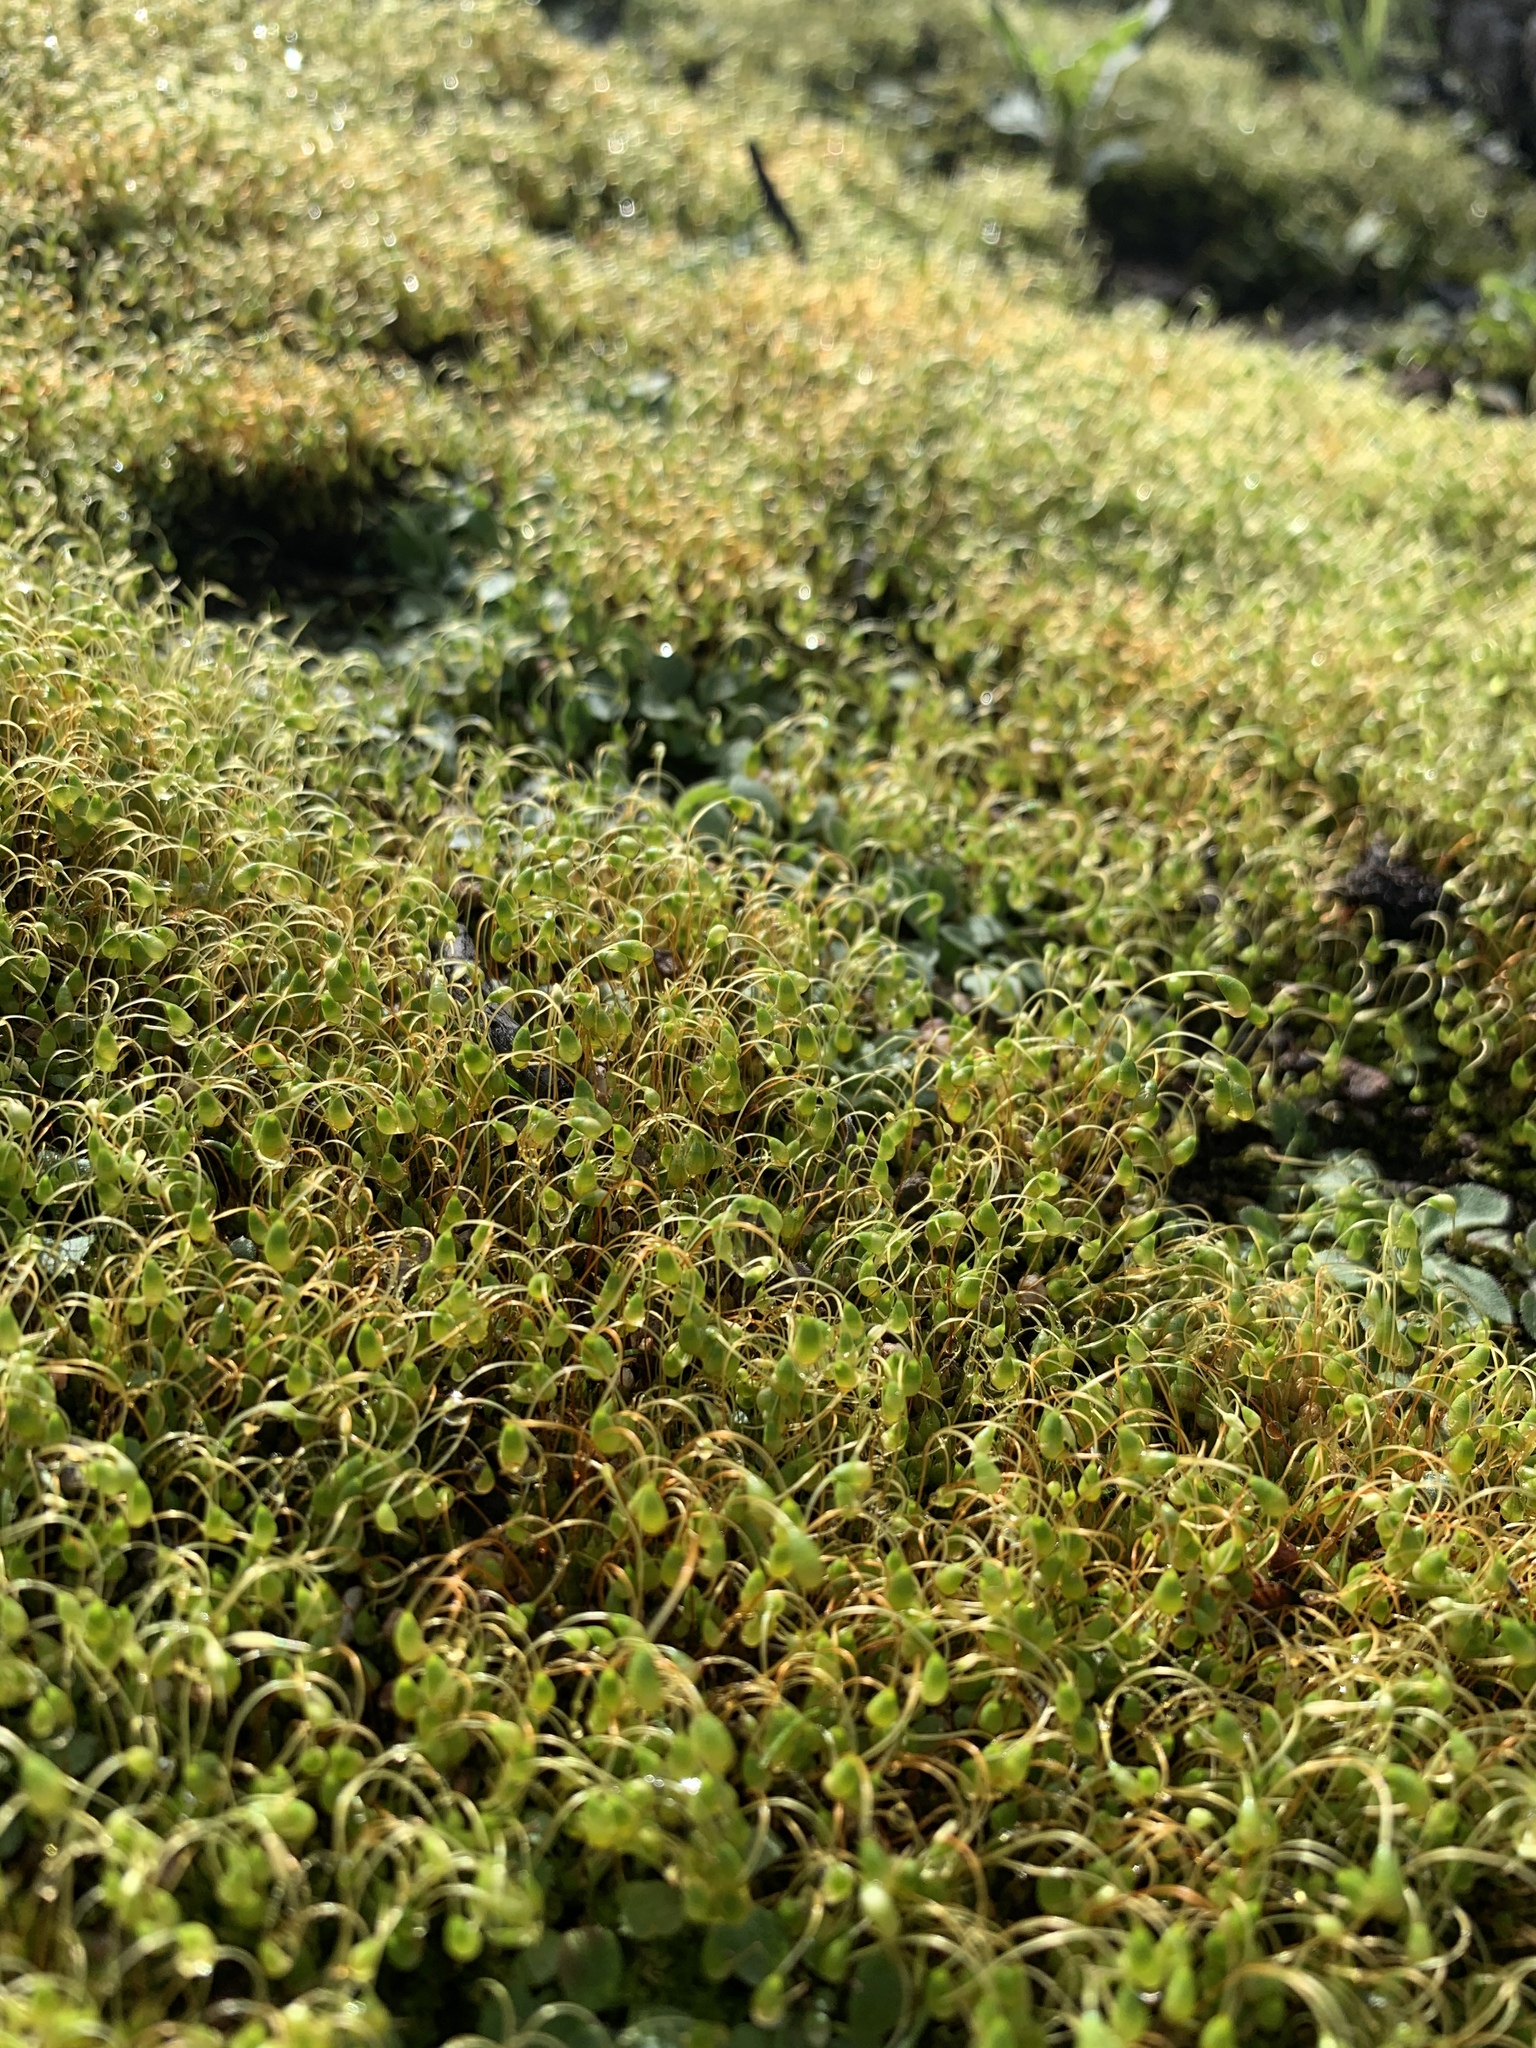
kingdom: Plantae
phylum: Bryophyta
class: Bryopsida
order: Funariales
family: Funariaceae
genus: Funaria
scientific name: Funaria hygrometrica
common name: Common cord moss
